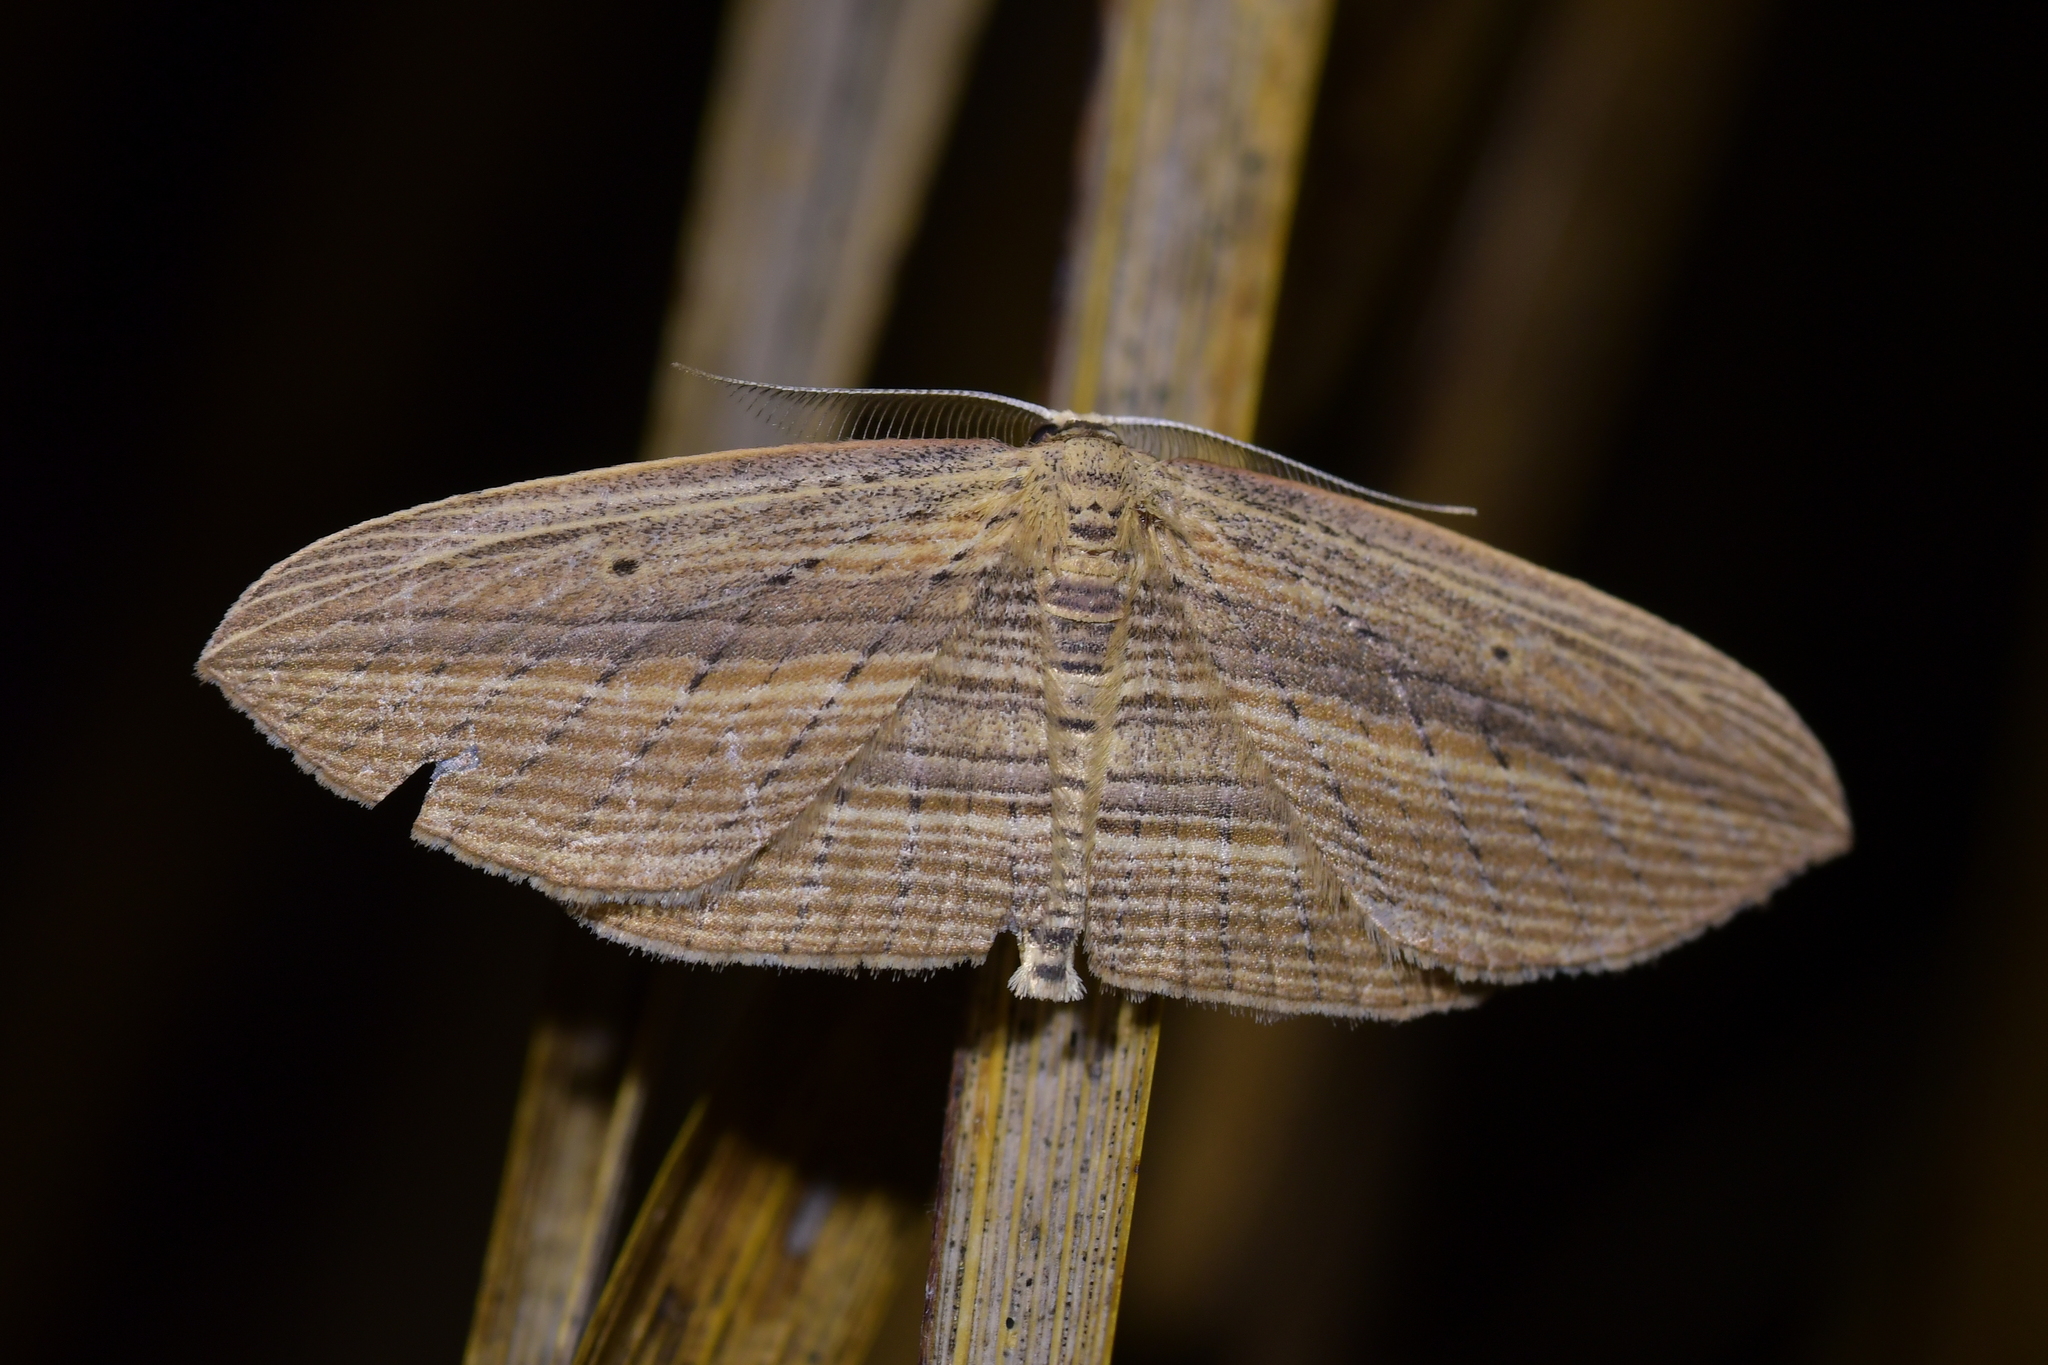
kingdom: Animalia
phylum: Arthropoda
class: Insecta
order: Lepidoptera
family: Geometridae
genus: Epiphryne
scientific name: Epiphryne verriculata
